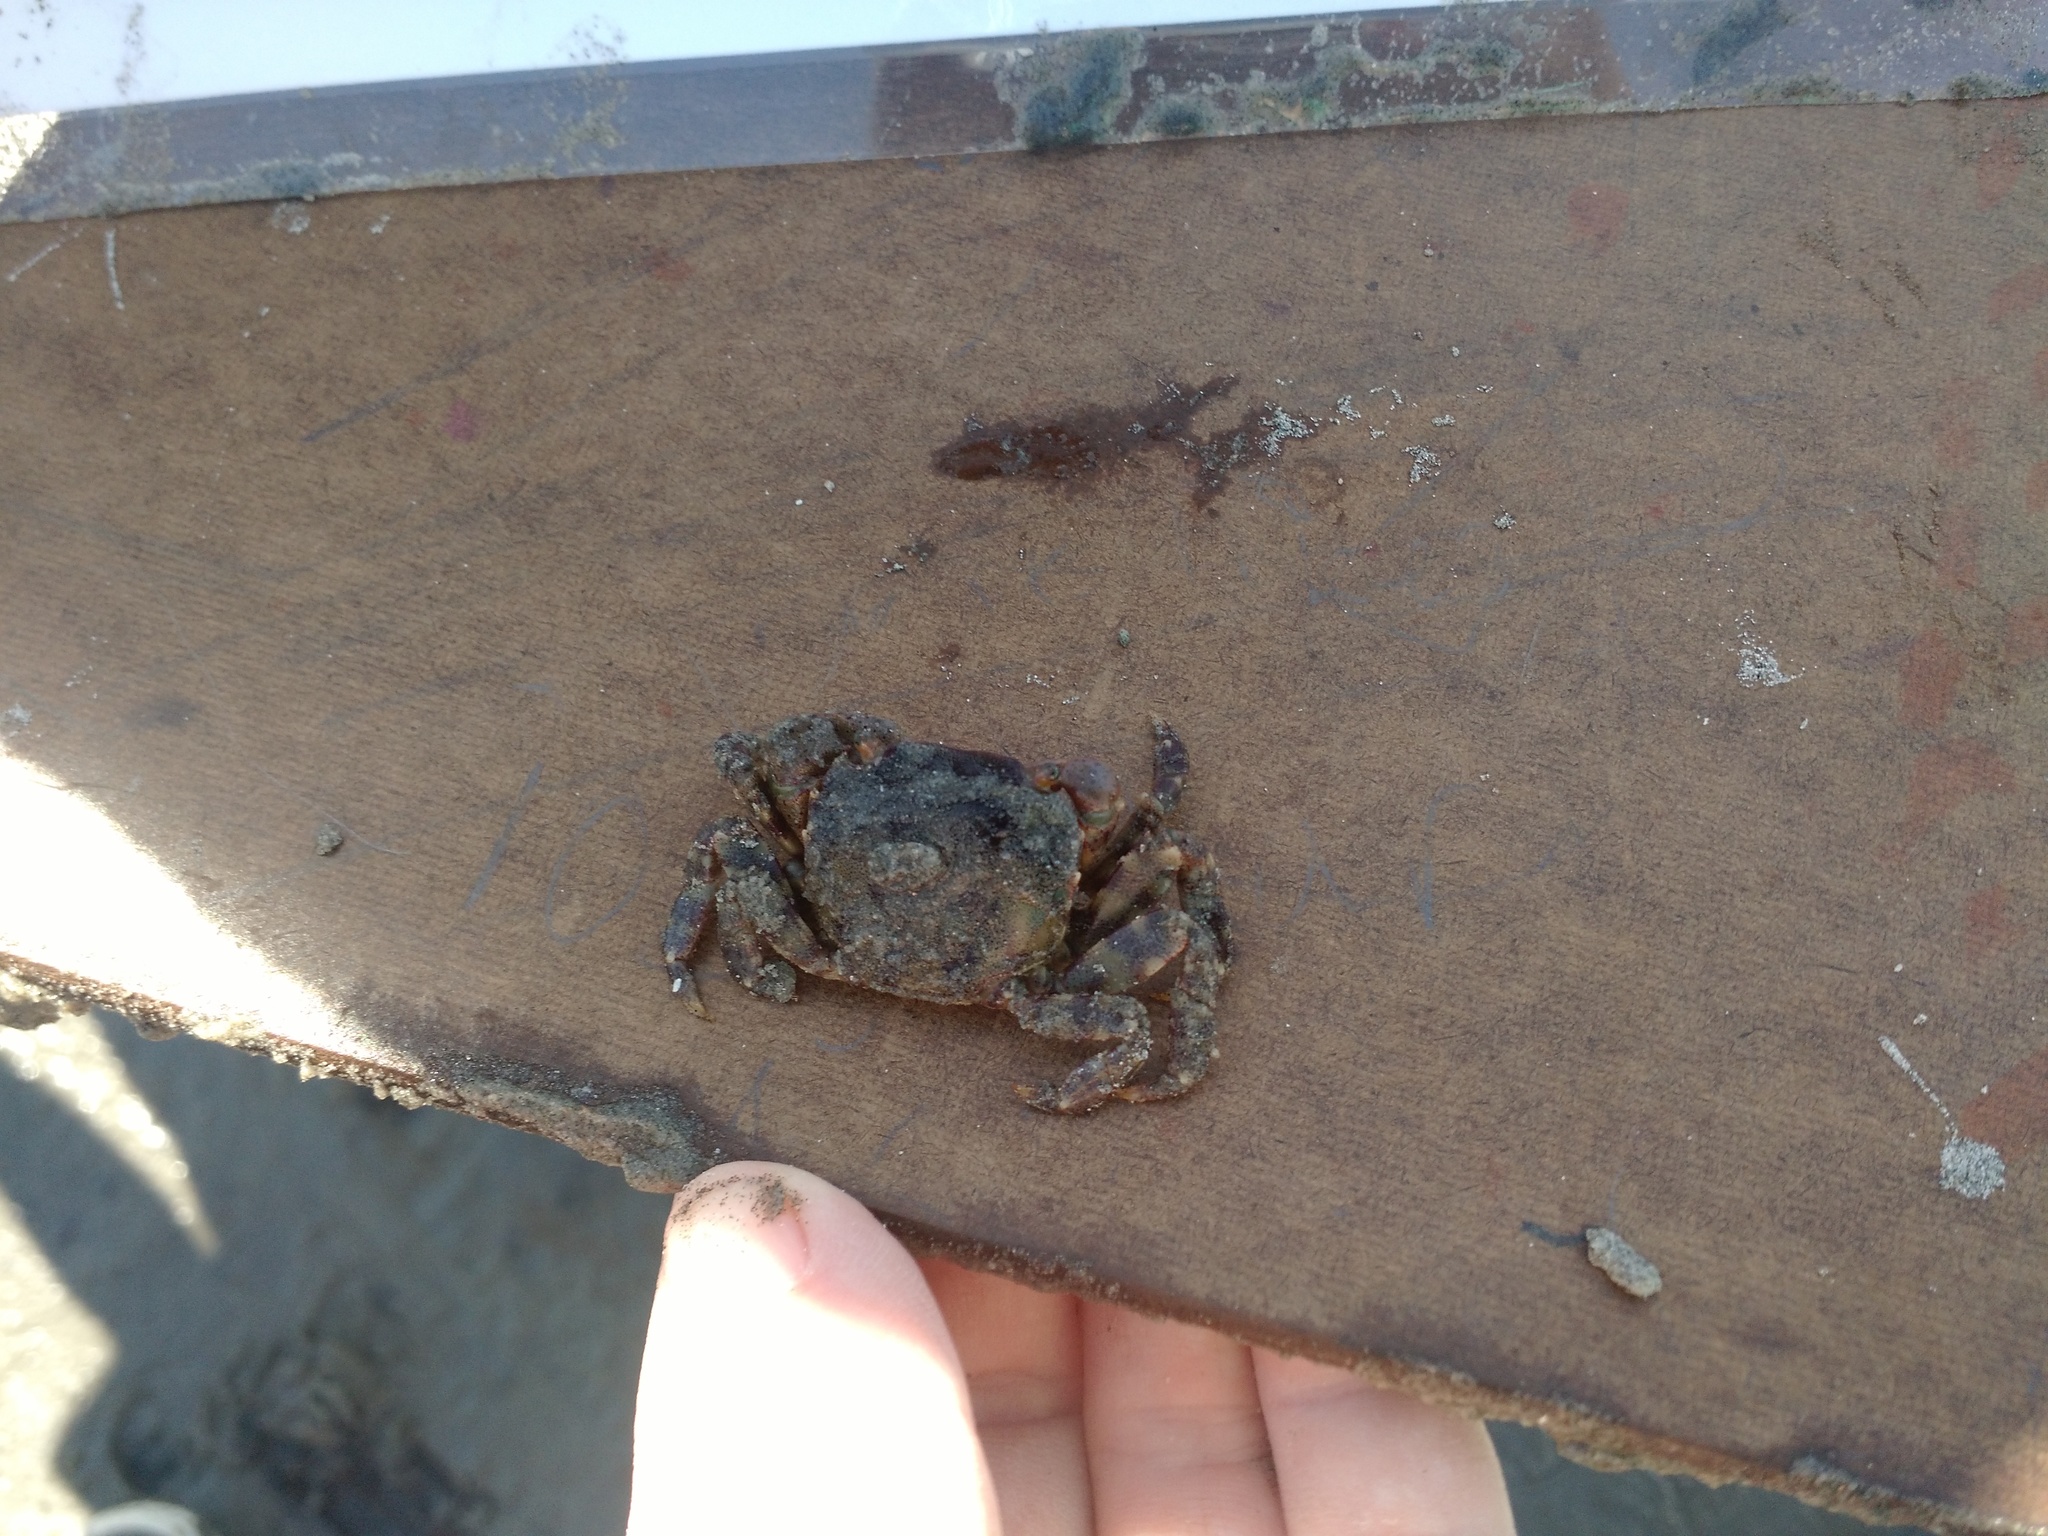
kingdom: Animalia
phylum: Arthropoda
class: Malacostraca
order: Decapoda
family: Varunidae
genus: Hemigrapsus
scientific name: Hemigrapsus sanguineus
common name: Asian shore crab
